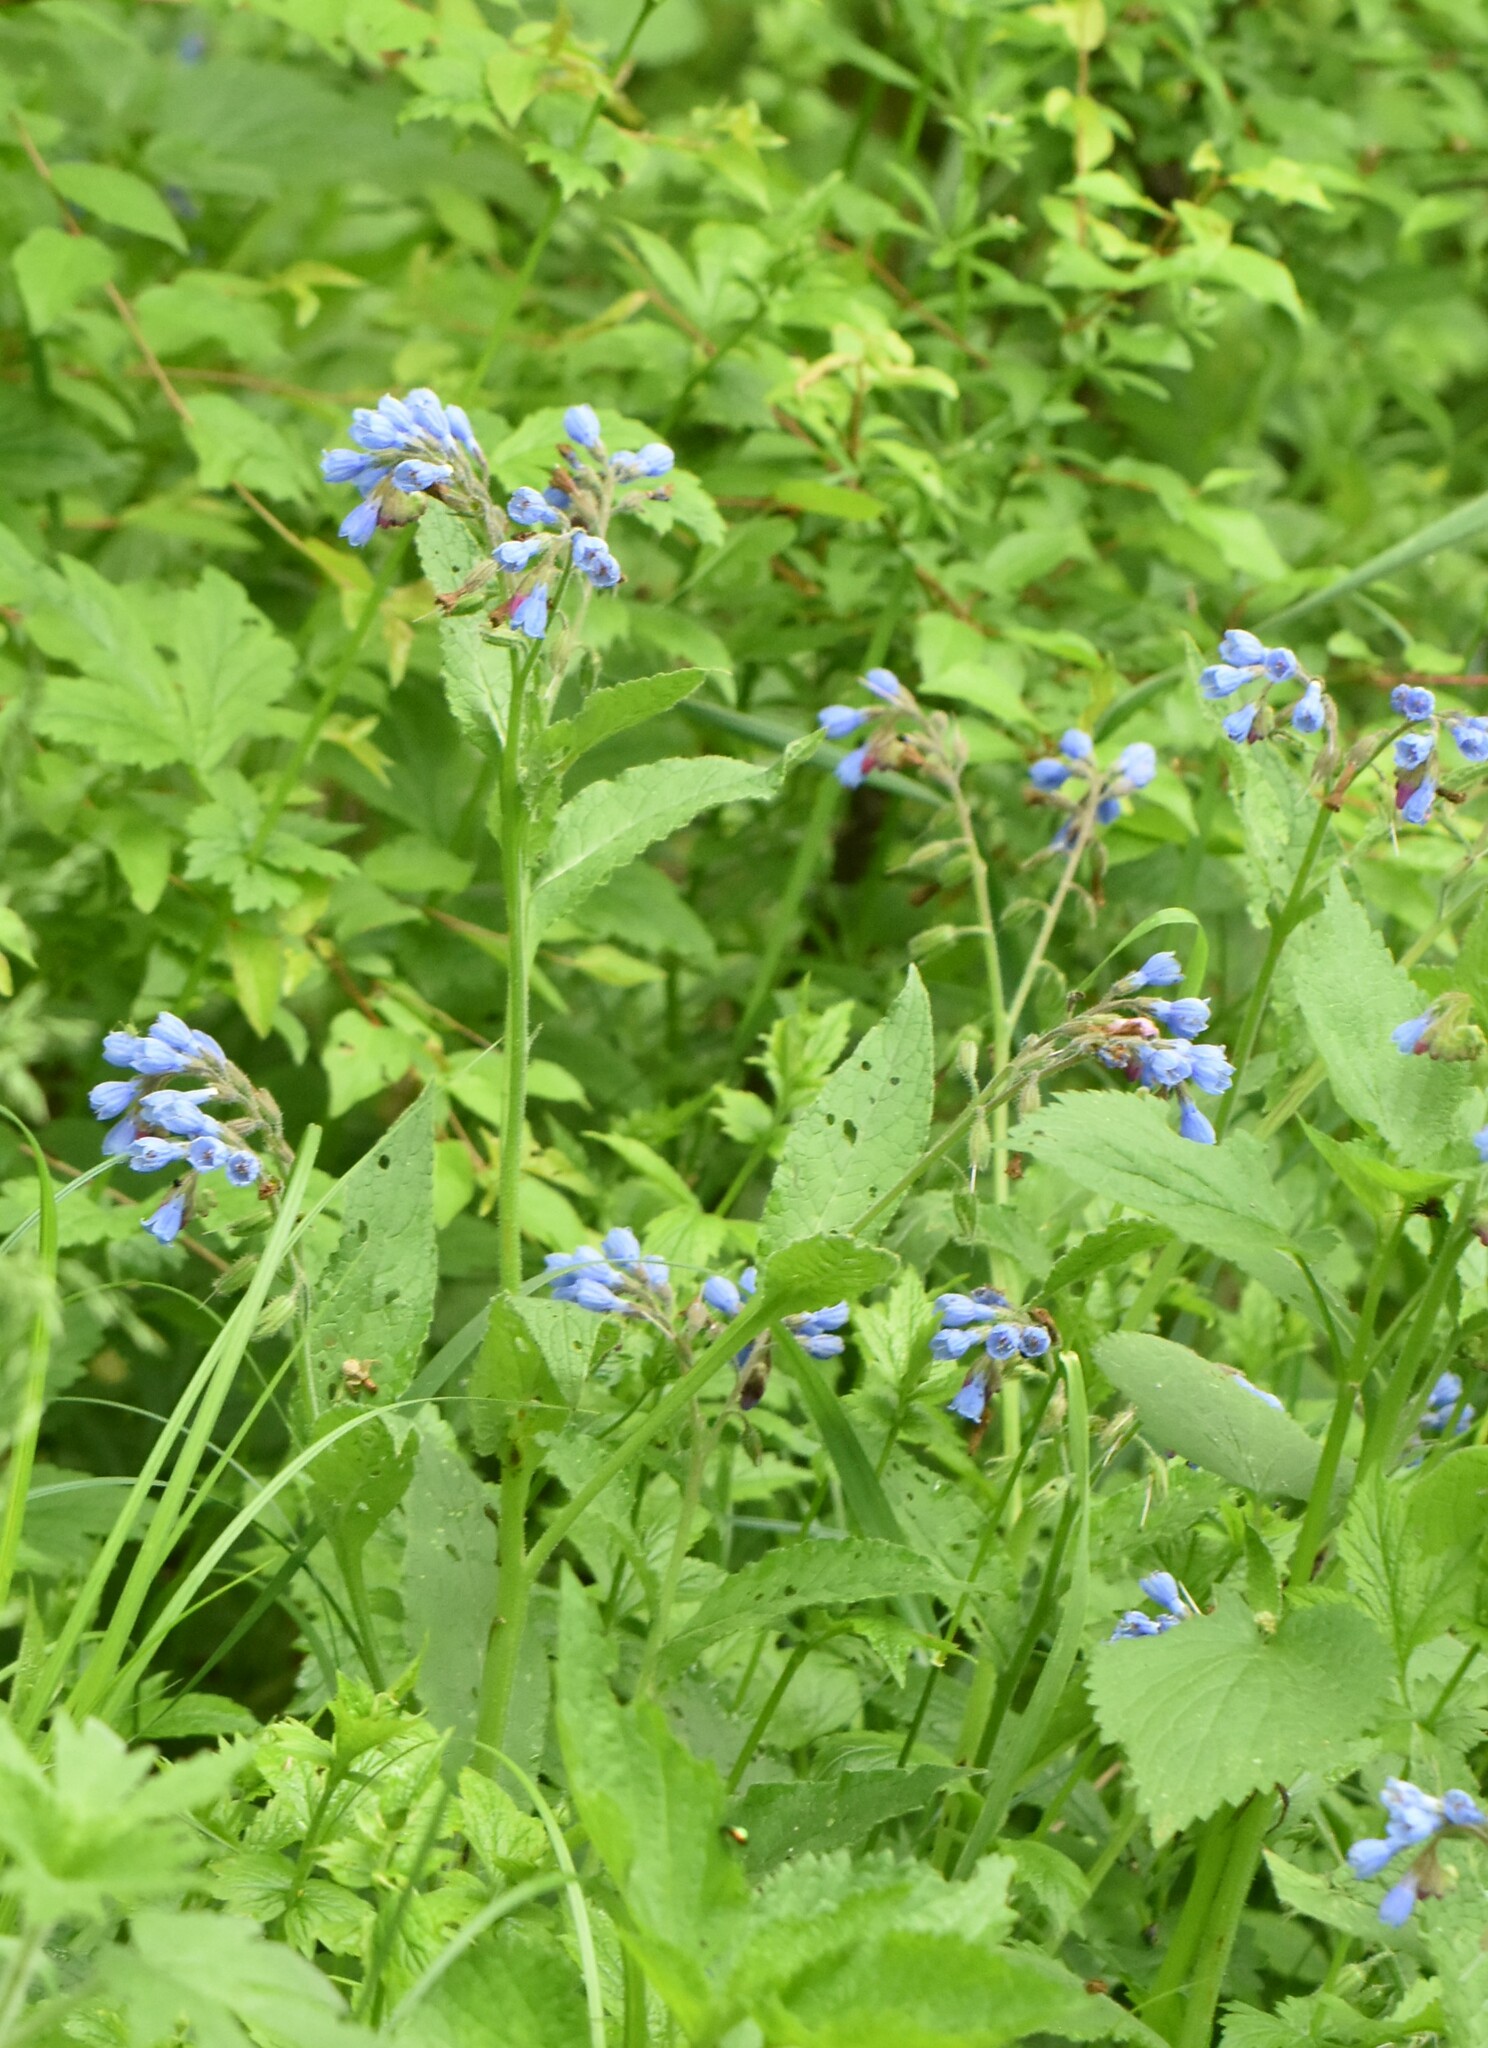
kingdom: Plantae
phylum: Tracheophyta
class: Magnoliopsida
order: Boraginales
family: Boraginaceae
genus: Symphytum
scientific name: Symphytum asperum
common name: Prickly comfrey
